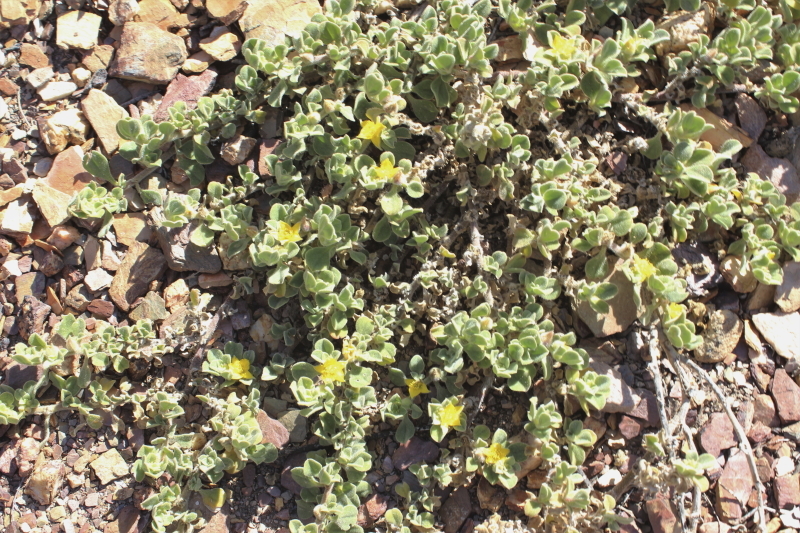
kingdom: Plantae
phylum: Tracheophyta
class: Magnoliopsida
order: Caryophyllales
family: Aizoaceae
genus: Aizoon
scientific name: Aizoon glinoides
